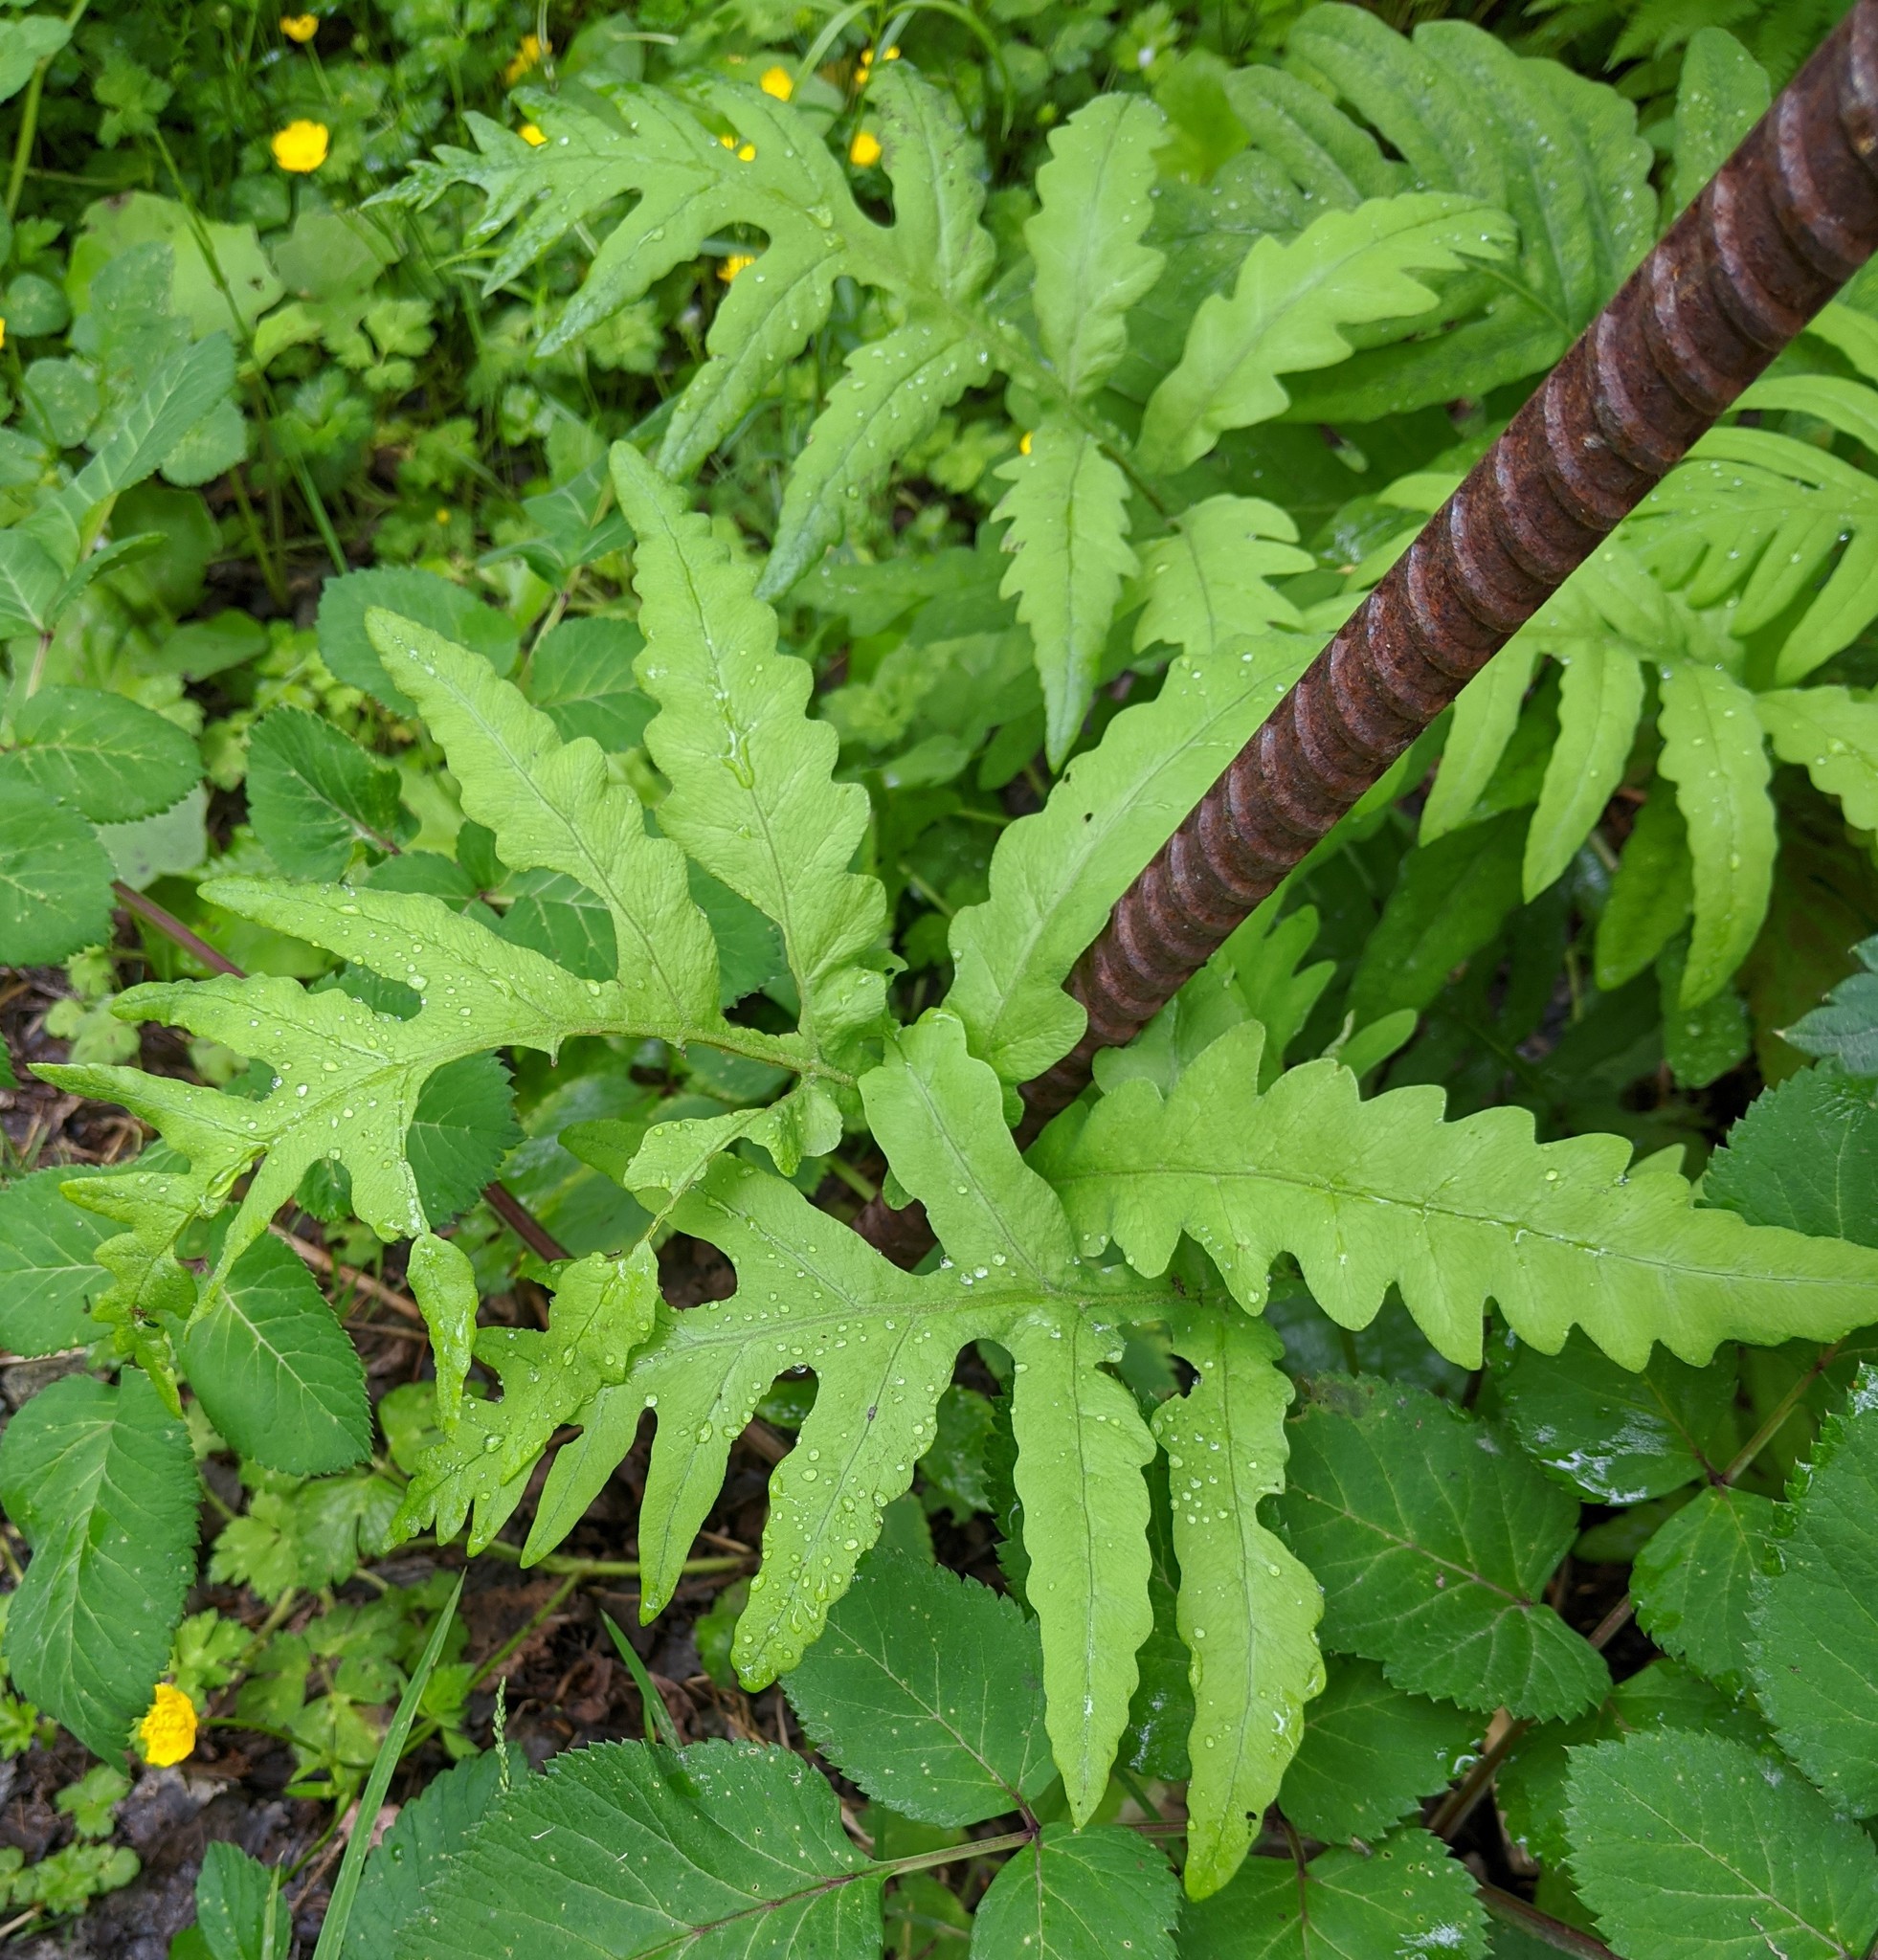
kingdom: Plantae
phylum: Tracheophyta
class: Polypodiopsida
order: Polypodiales
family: Onocleaceae
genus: Onoclea
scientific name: Onoclea sensibilis
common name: Sensitive fern
